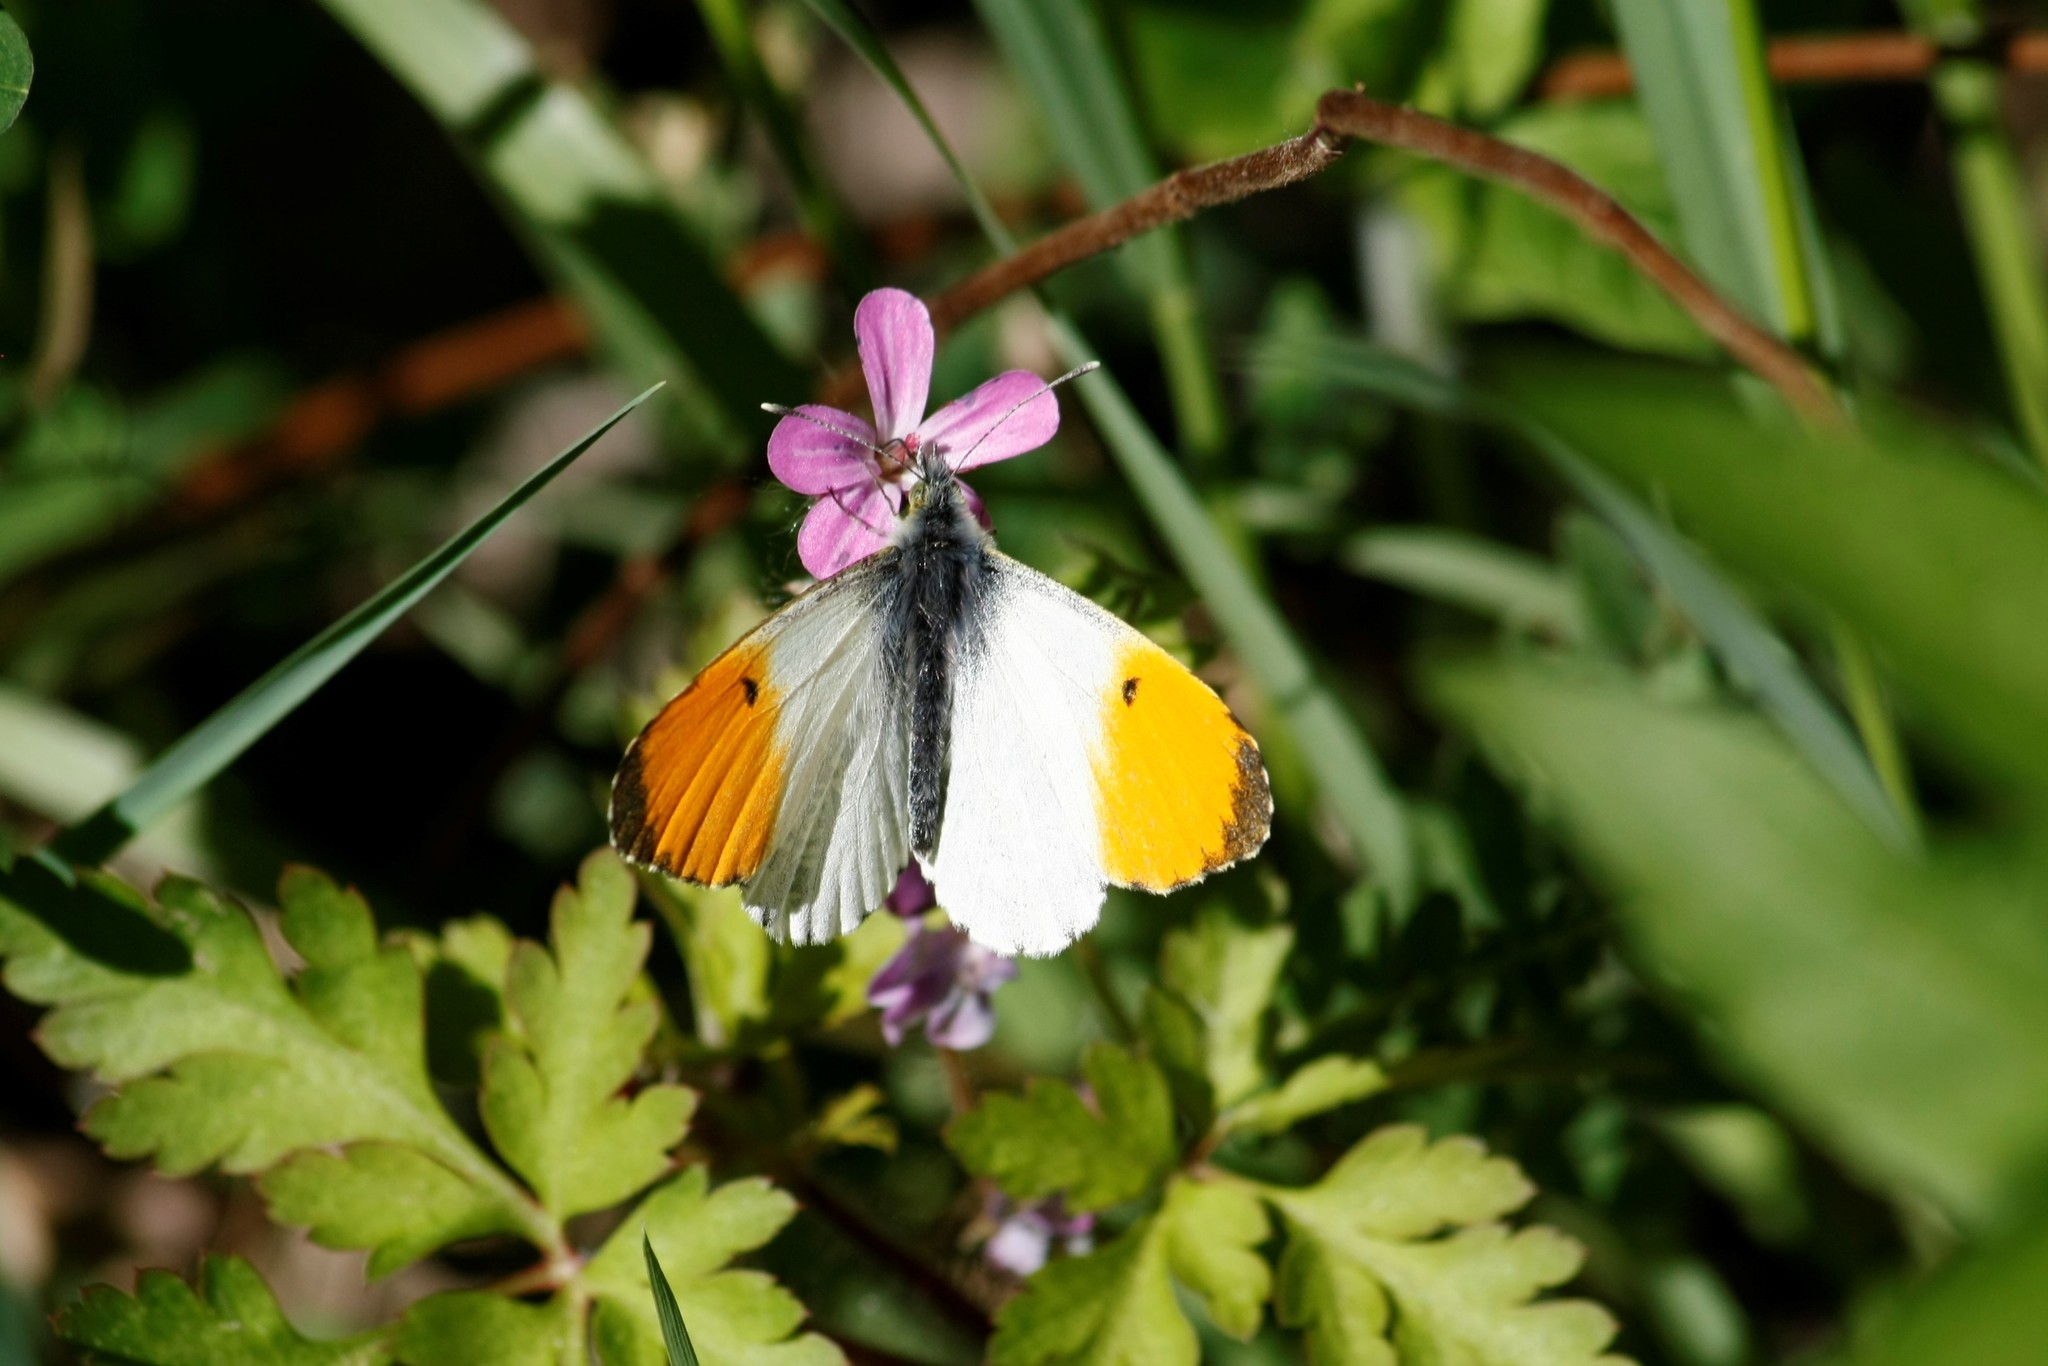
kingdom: Animalia
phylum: Arthropoda
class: Insecta
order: Lepidoptera
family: Pieridae
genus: Anthocharis
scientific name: Anthocharis cardamines
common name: Orange-tip
